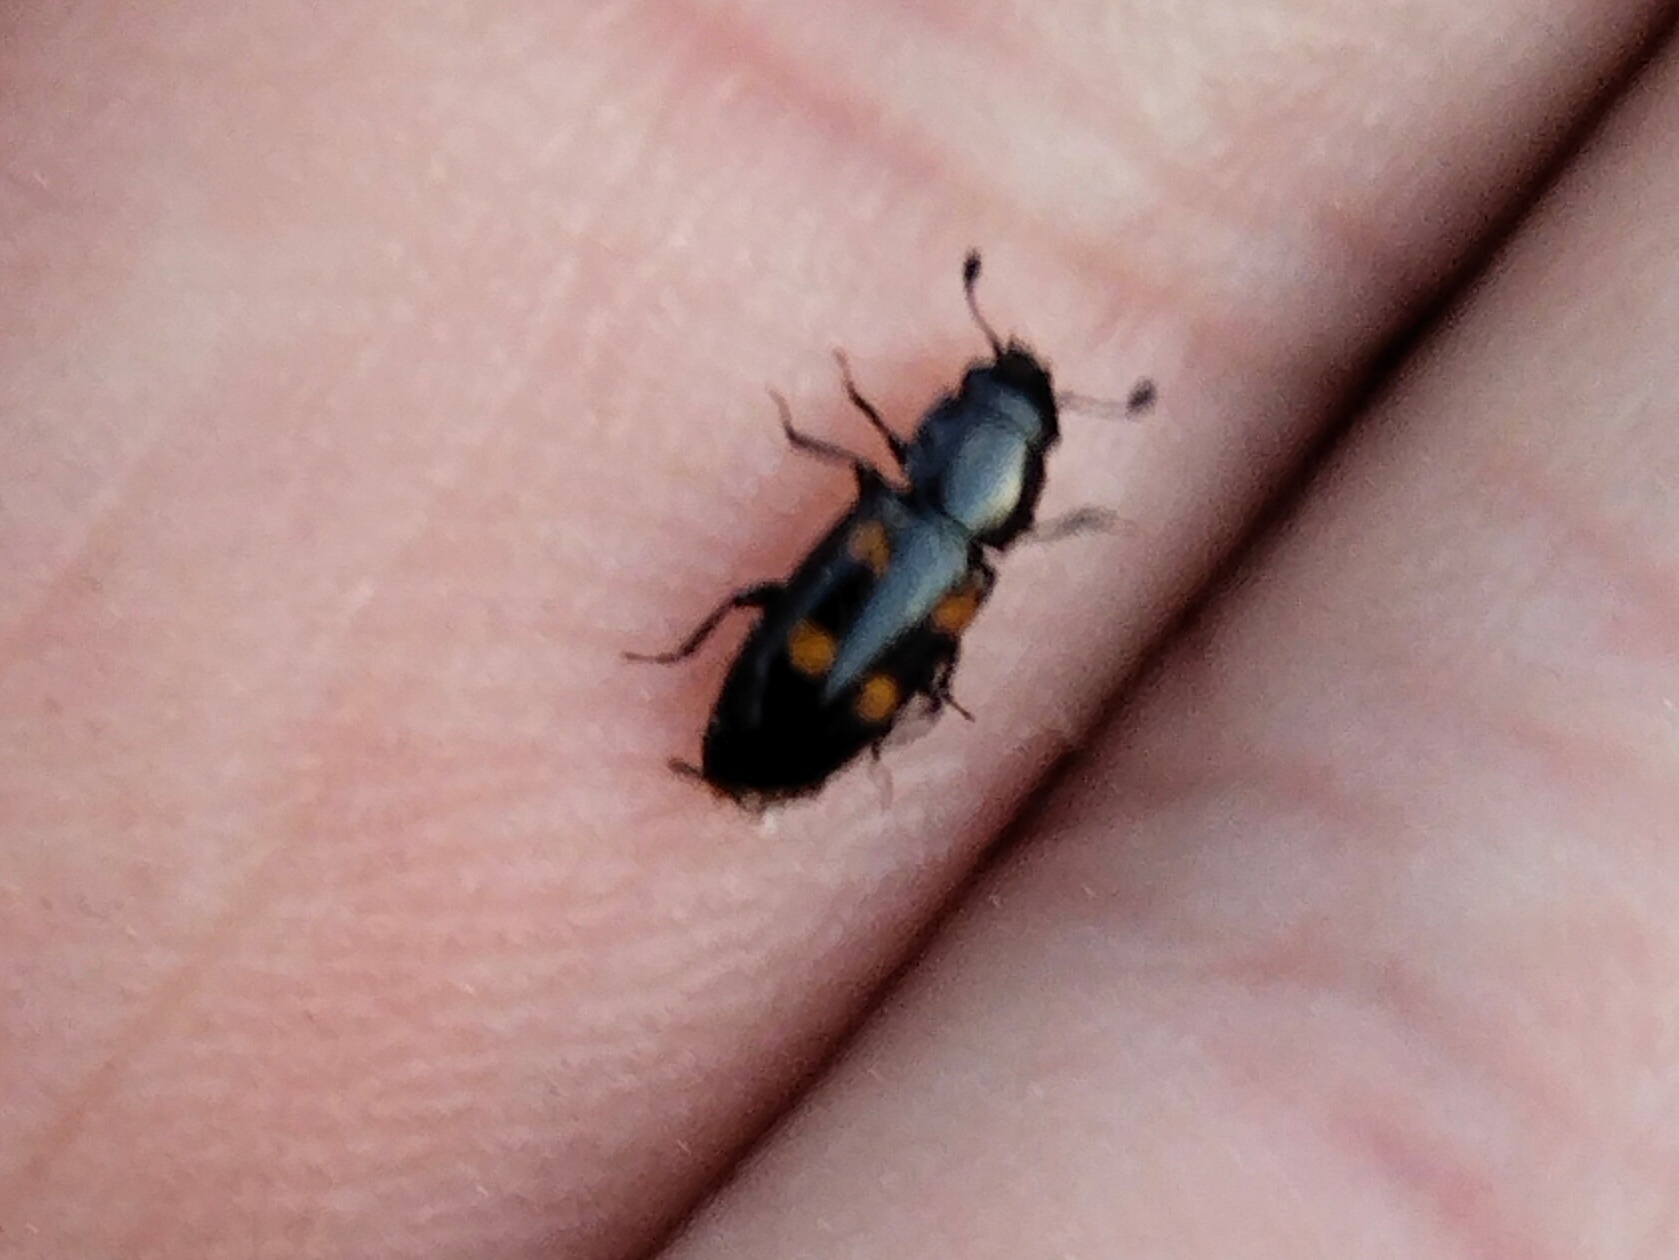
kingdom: Animalia
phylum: Arthropoda
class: Insecta
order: Coleoptera
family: Nitidulidae
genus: Glischrochilus
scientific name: Glischrochilus quadripunctatus
